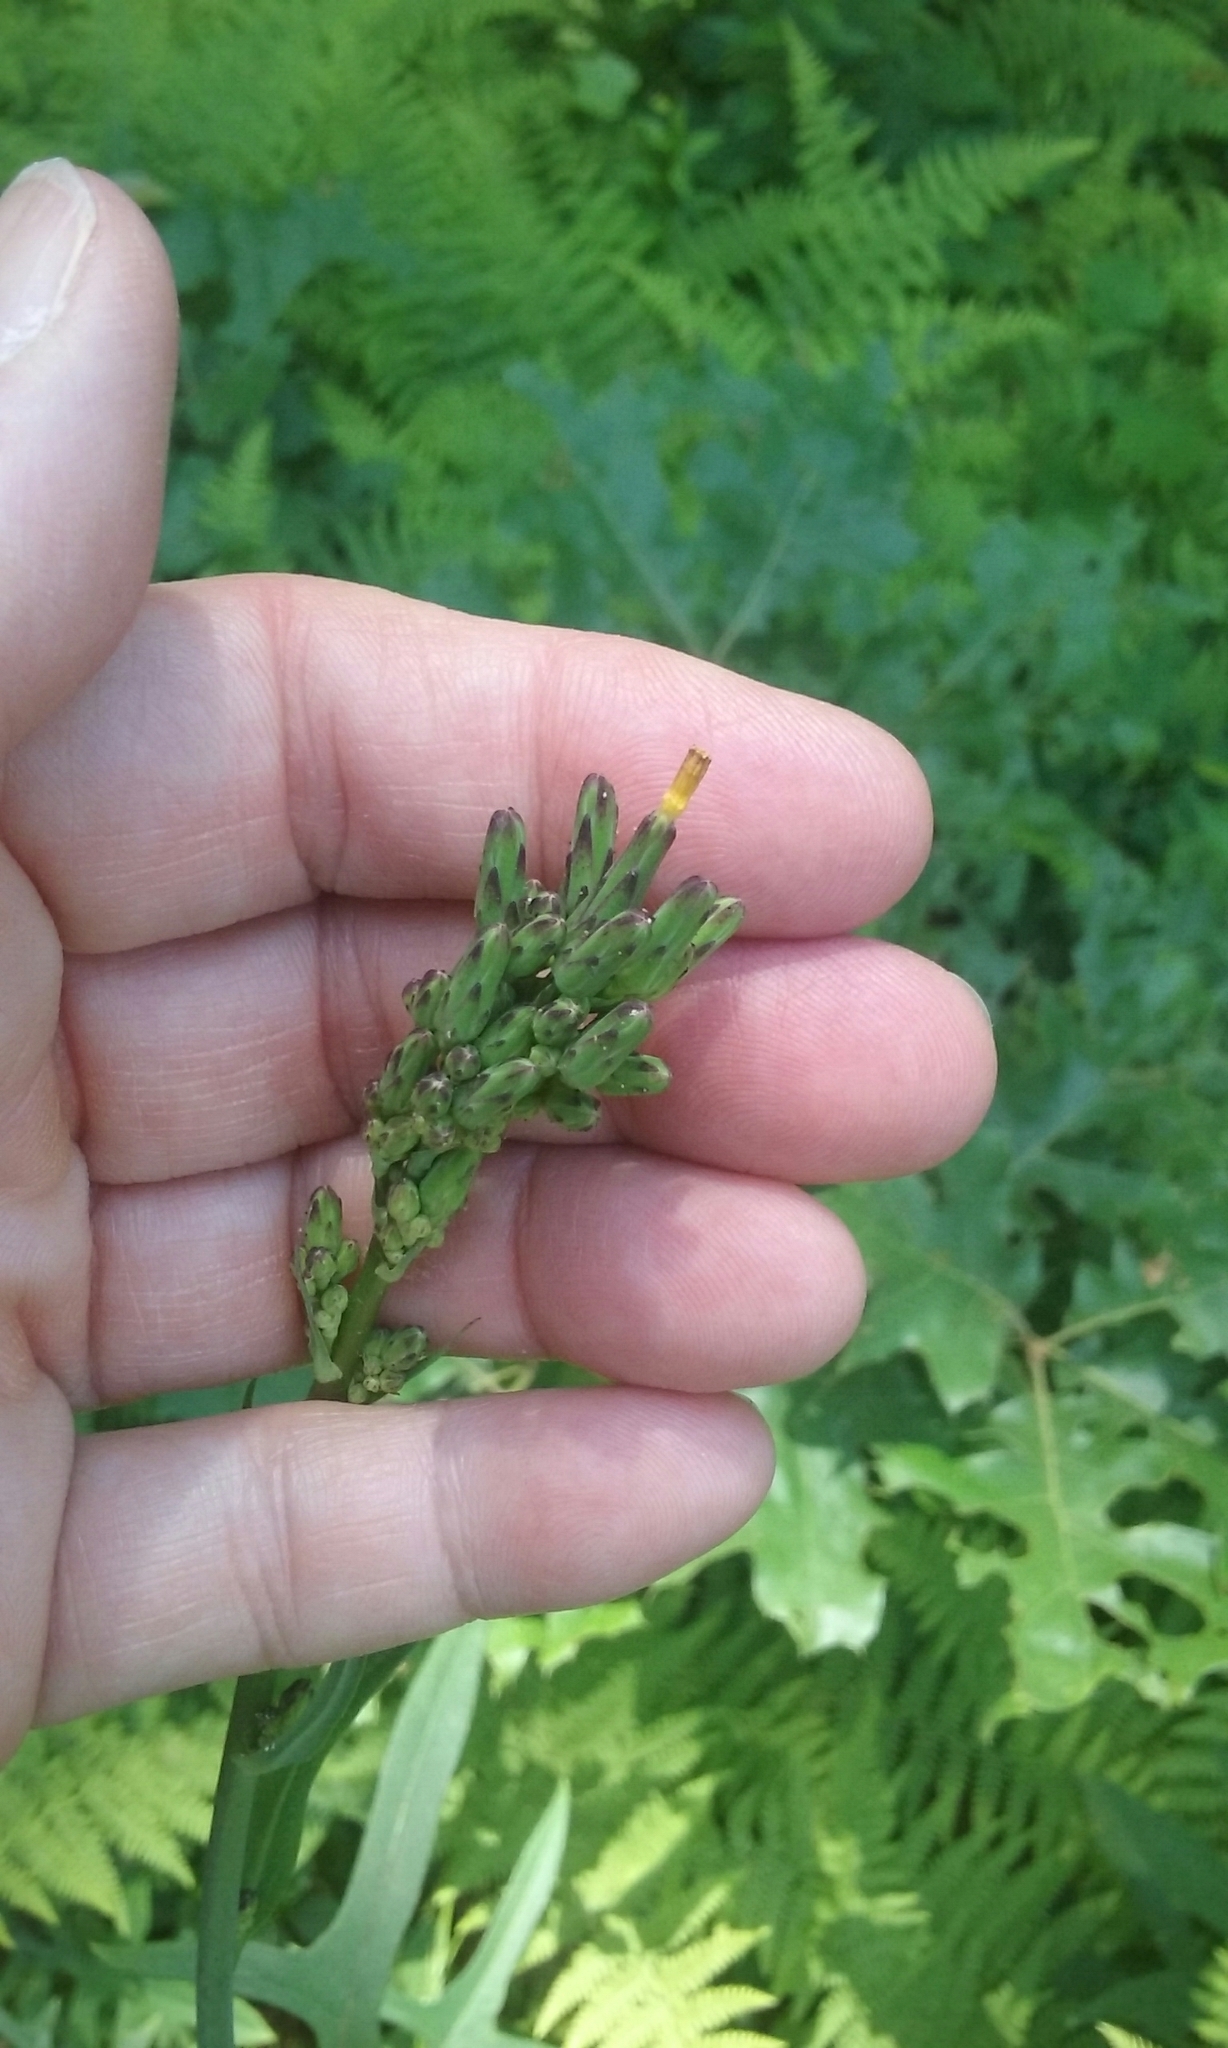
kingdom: Plantae
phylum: Tracheophyta
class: Magnoliopsida
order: Asterales
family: Asteraceae
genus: Lactuca
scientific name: Lactuca canadensis
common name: Canada lettuce
